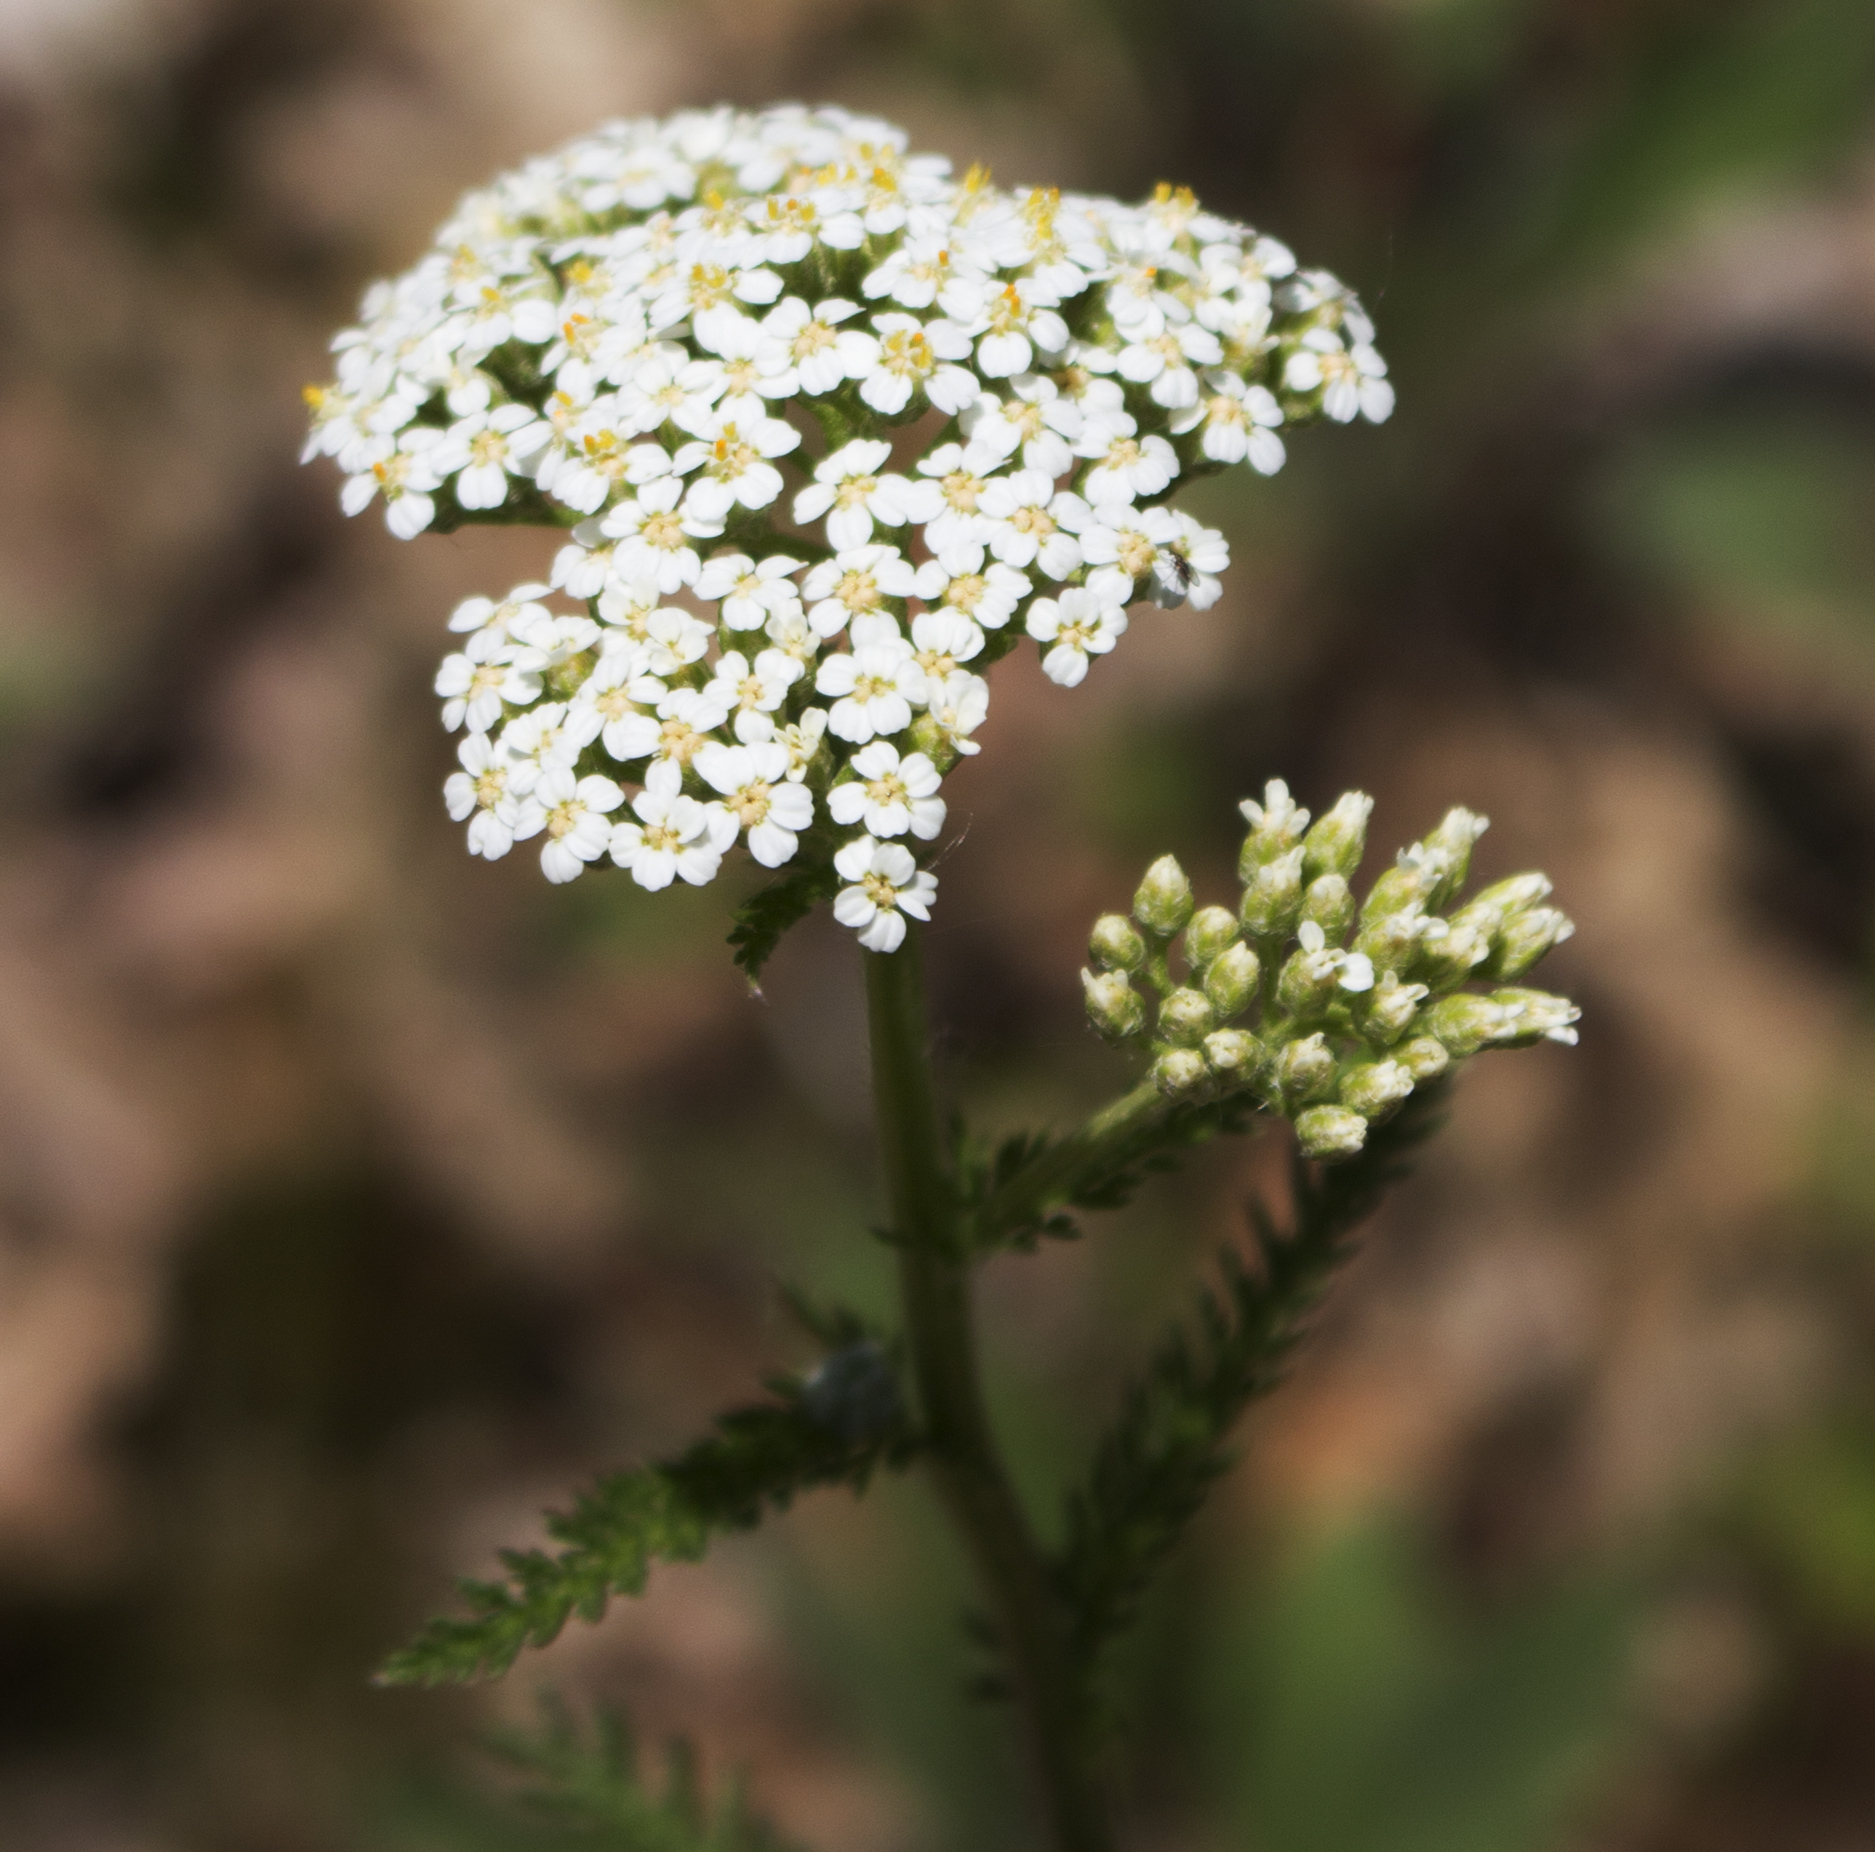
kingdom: Plantae
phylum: Tracheophyta
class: Magnoliopsida
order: Asterales
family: Asteraceae
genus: Achillea
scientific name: Achillea millefolium
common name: Yarrow
